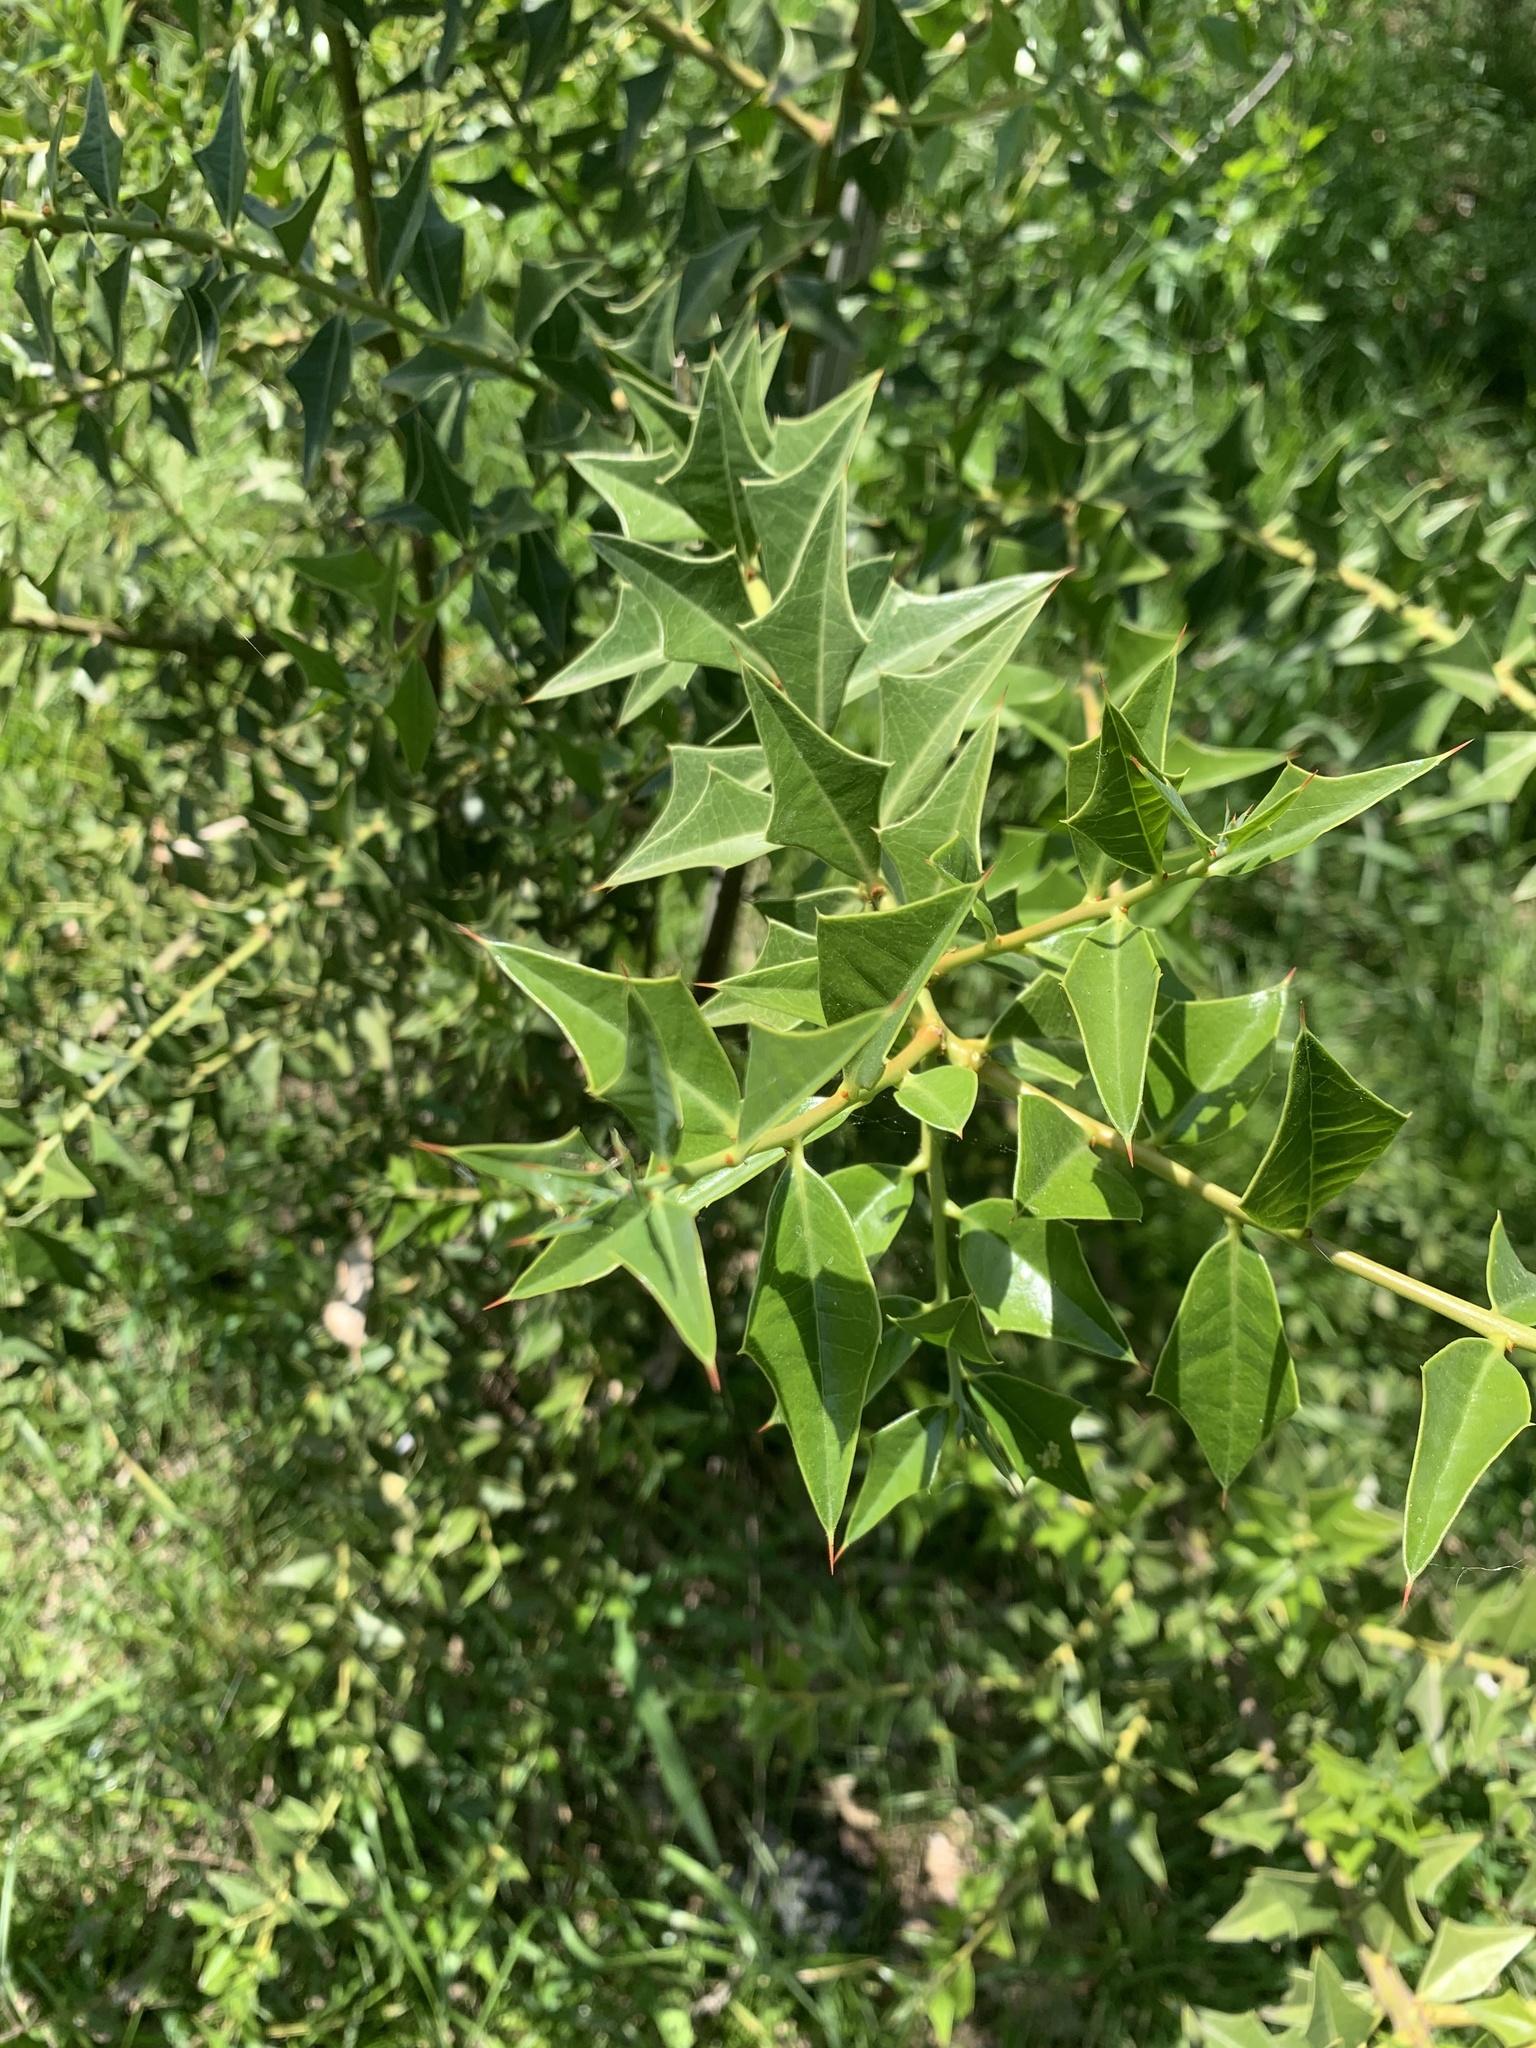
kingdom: Plantae
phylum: Tracheophyta
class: Magnoliopsida
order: Santalales
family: Cervantesiaceae
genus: Jodina
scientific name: Jodina rhombifolia
